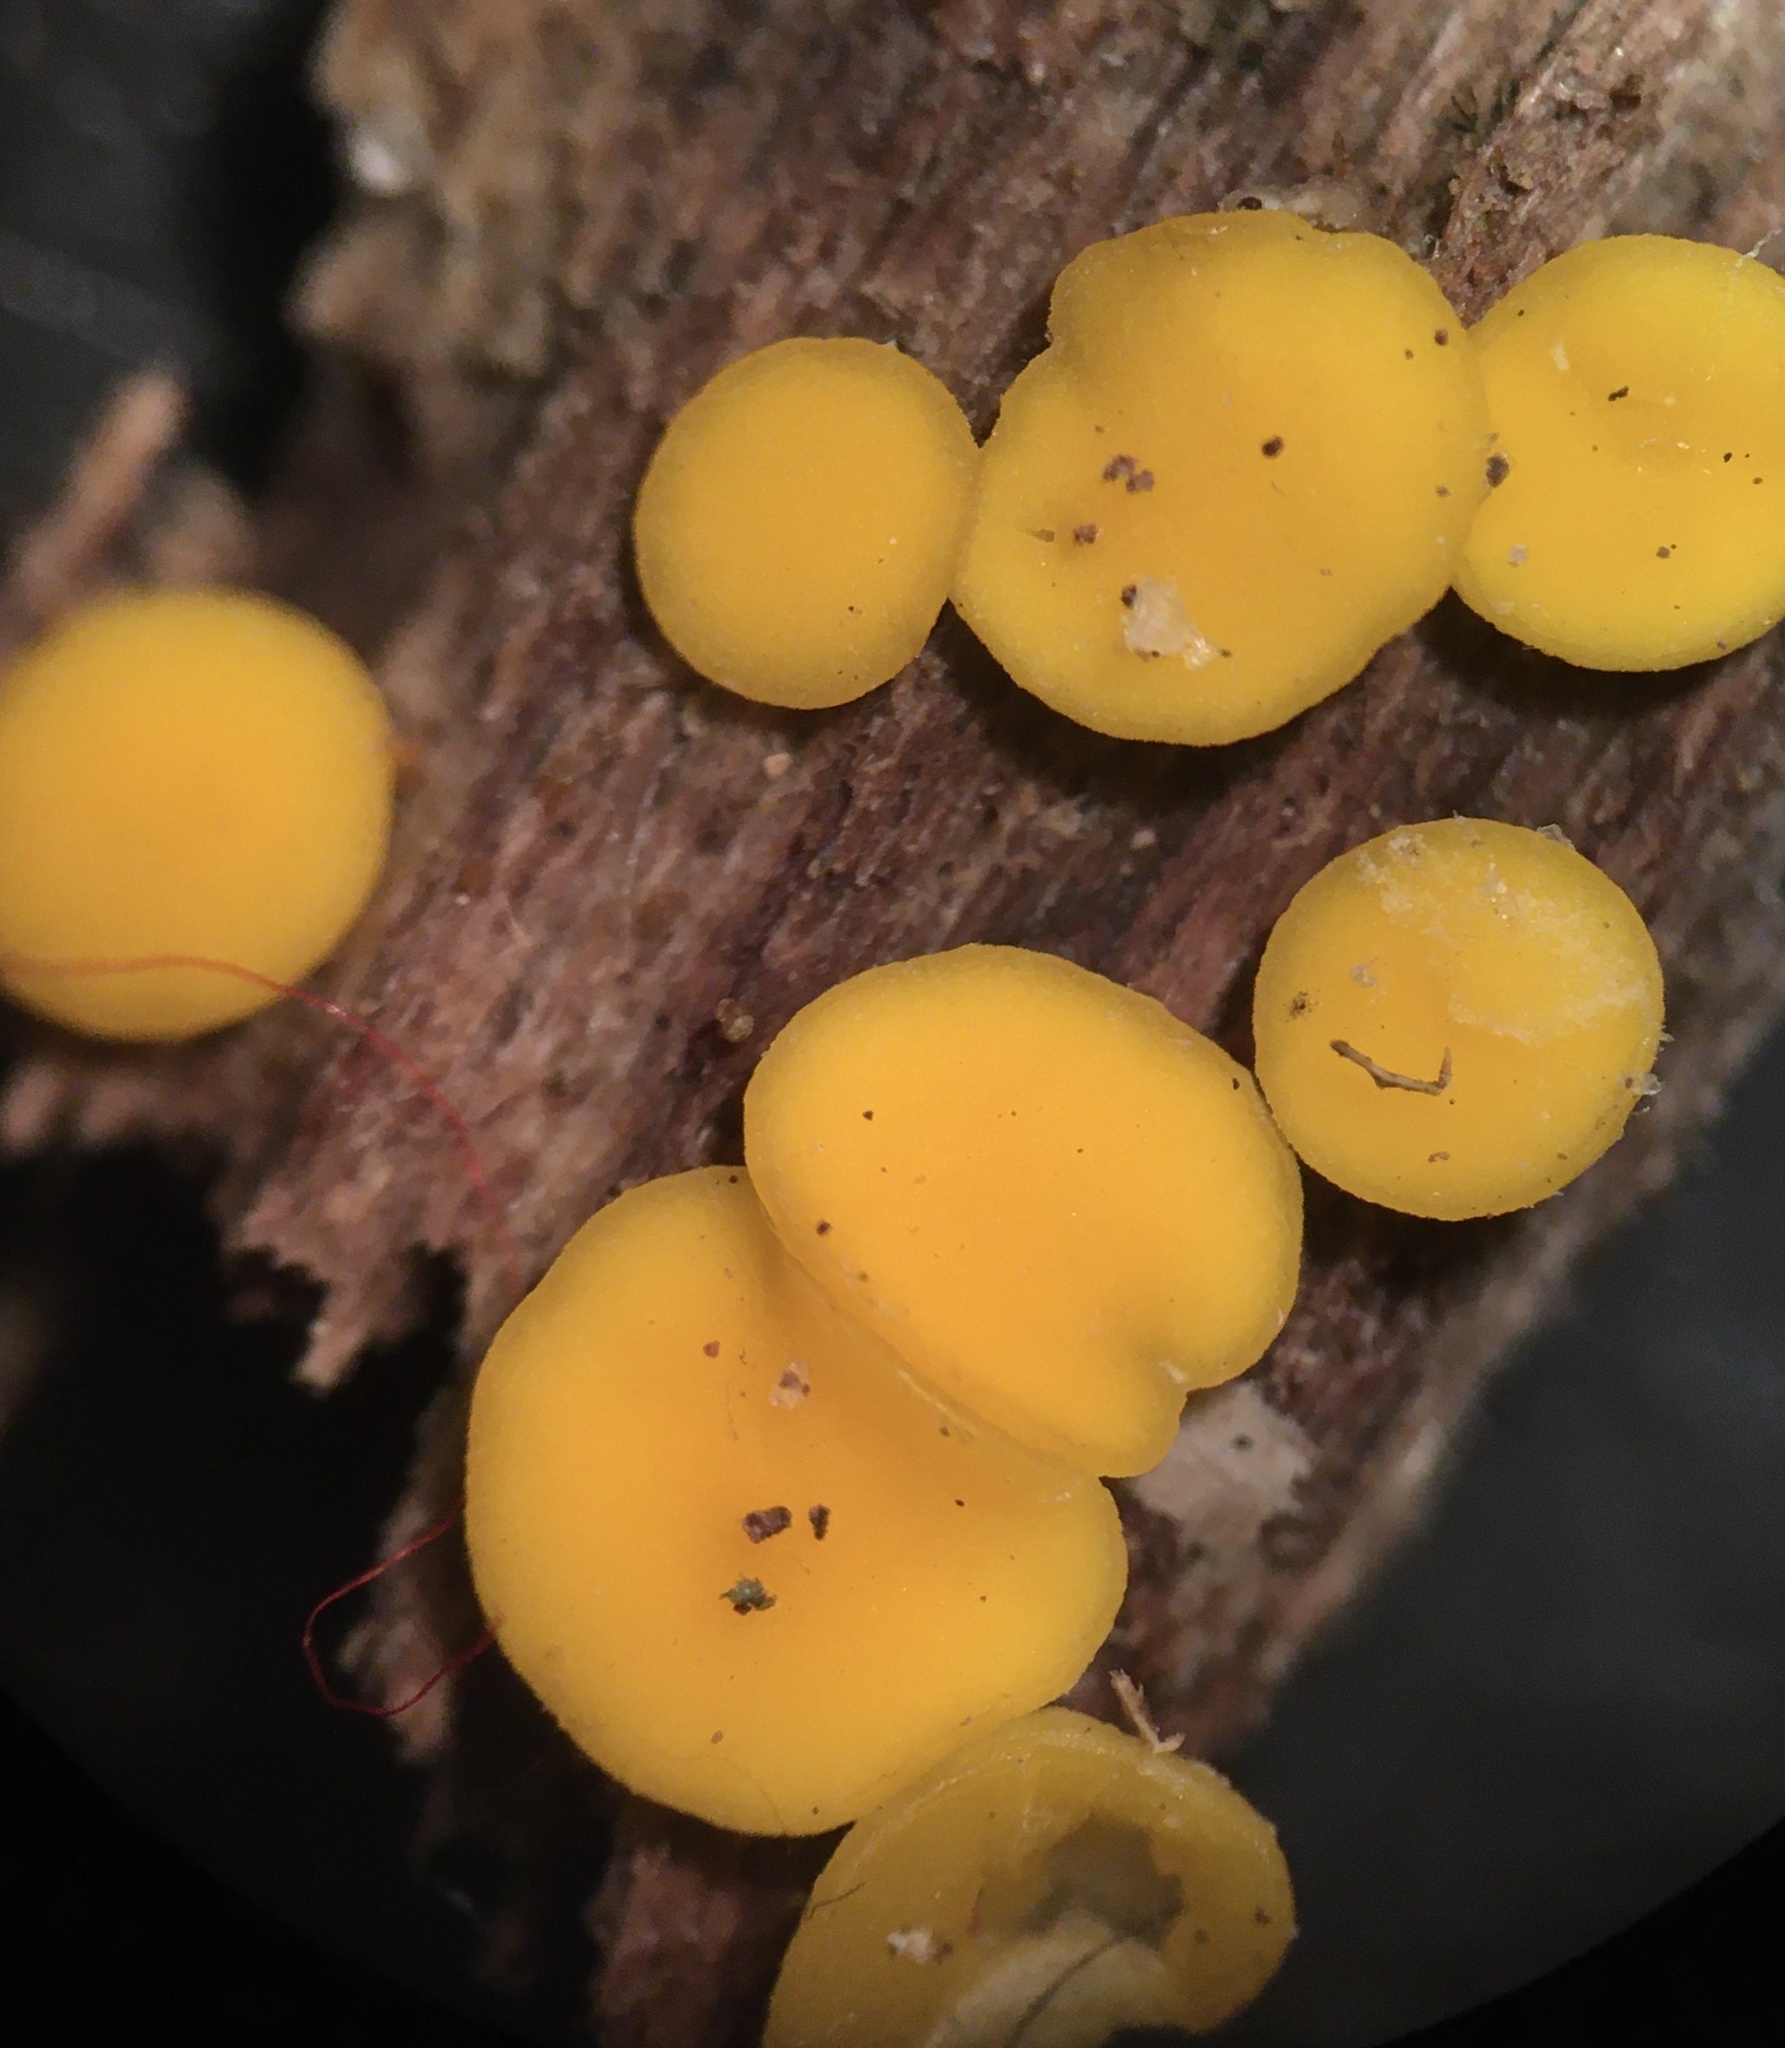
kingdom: Fungi
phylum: Ascomycota
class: Leotiomycetes
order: Helotiales
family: Pezizellaceae
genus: Calycina
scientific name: Calycina citrina
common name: Yellow fairy cups
